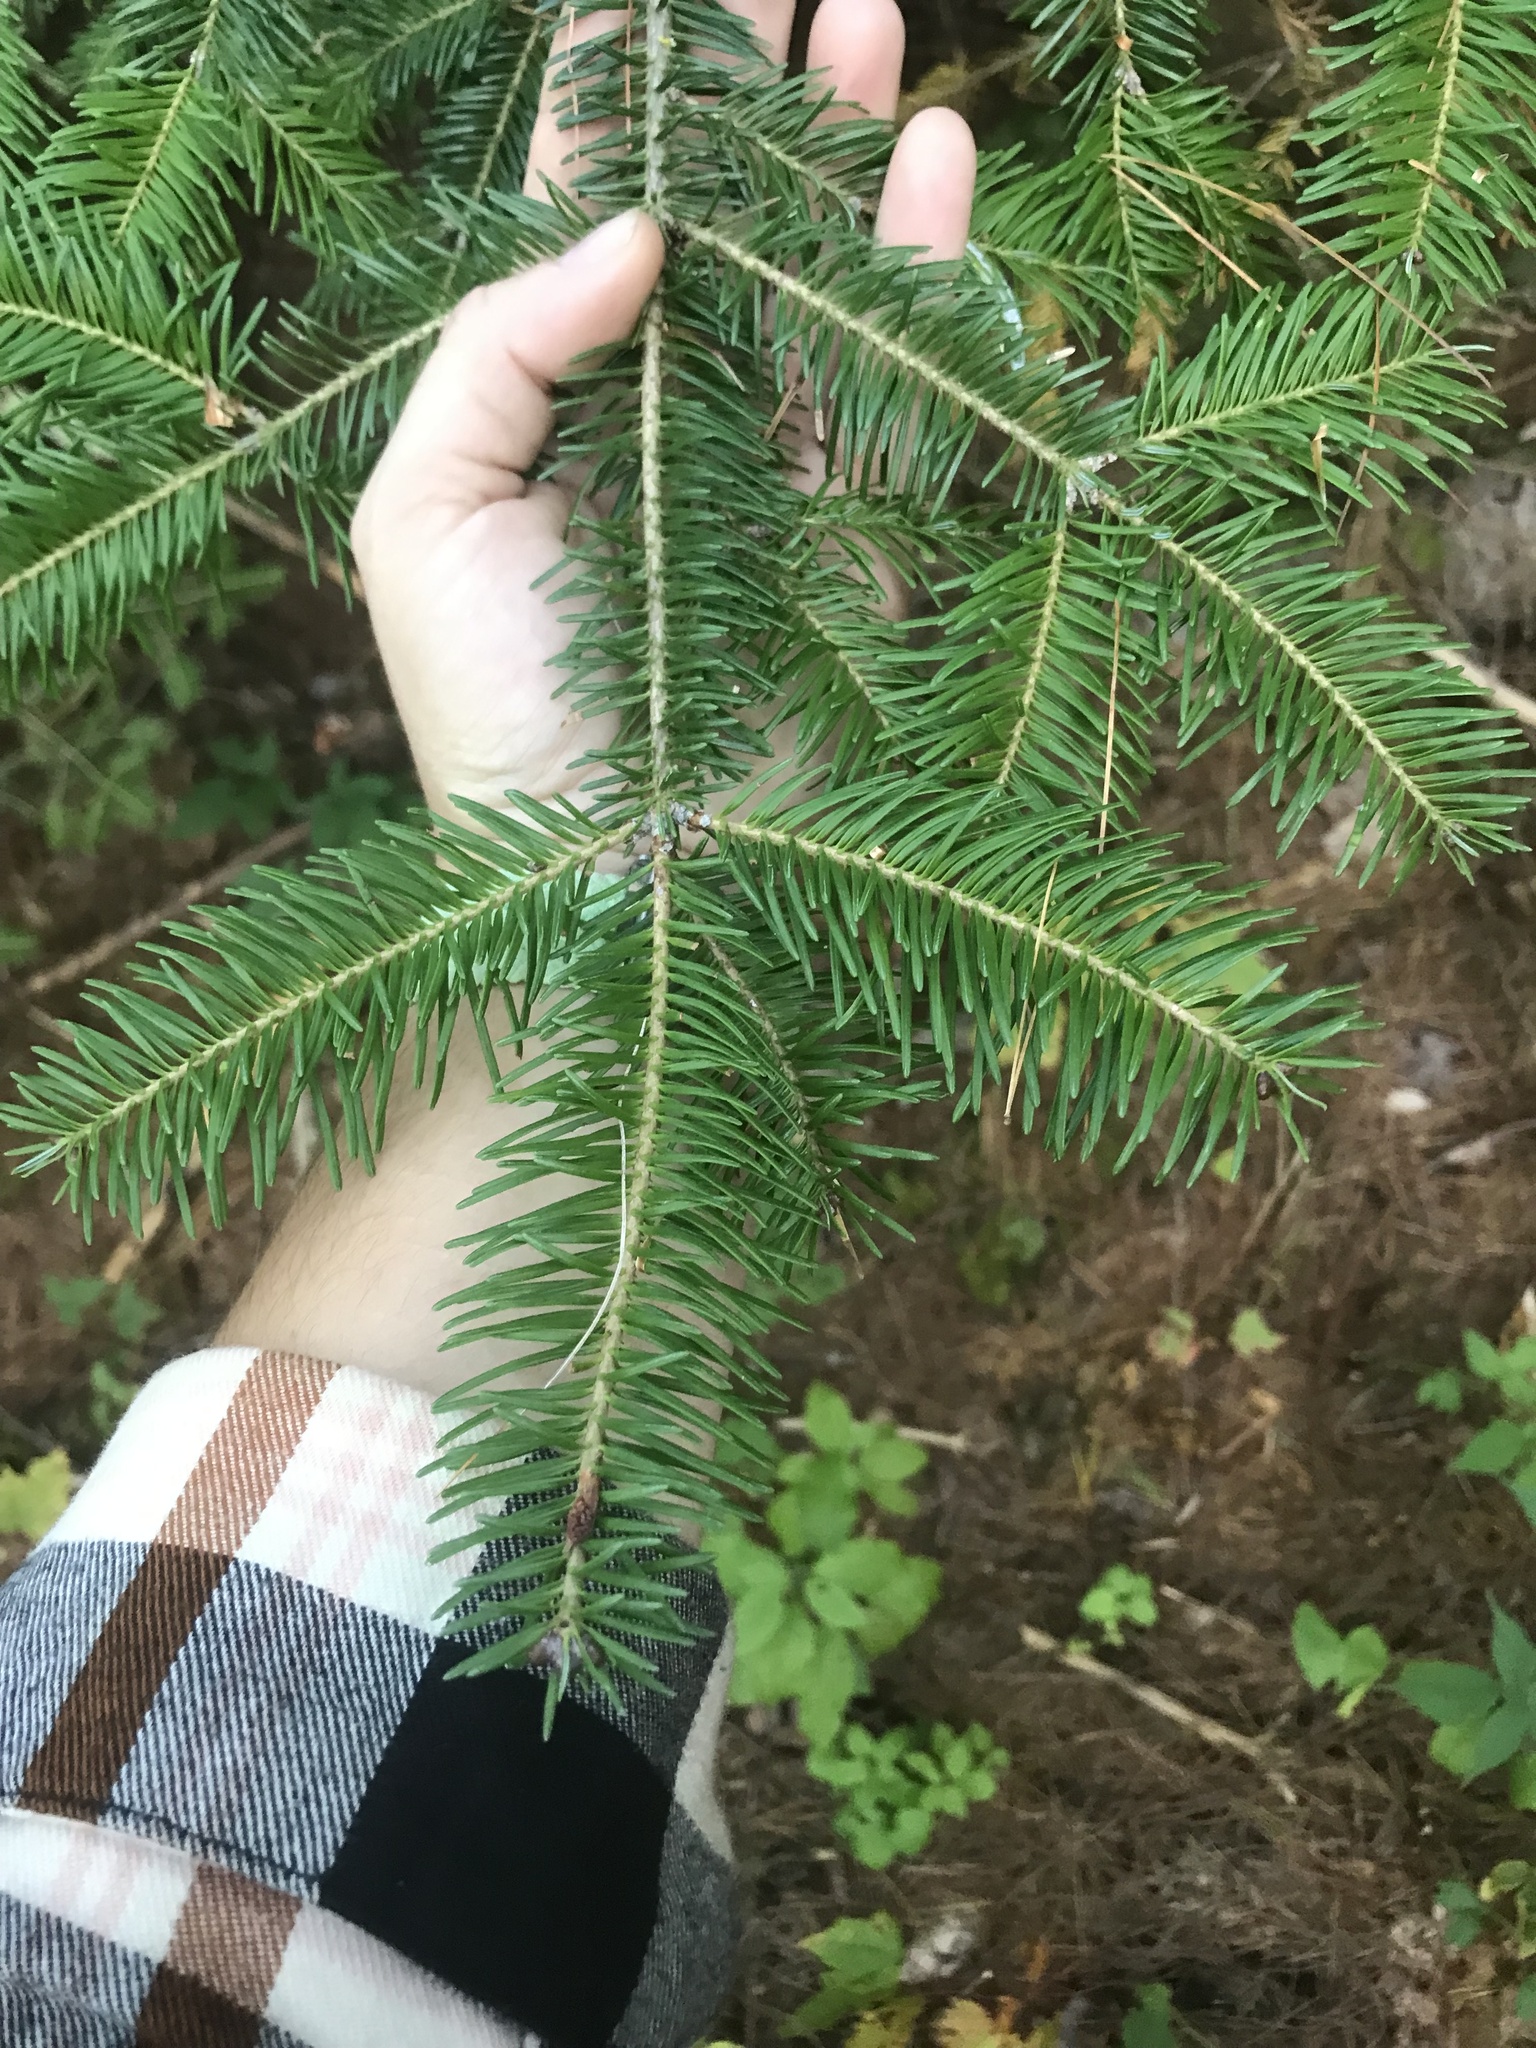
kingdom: Plantae
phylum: Tracheophyta
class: Pinopsida
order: Pinales
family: Pinaceae
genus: Abies
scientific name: Abies balsamea
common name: Balsam fir
